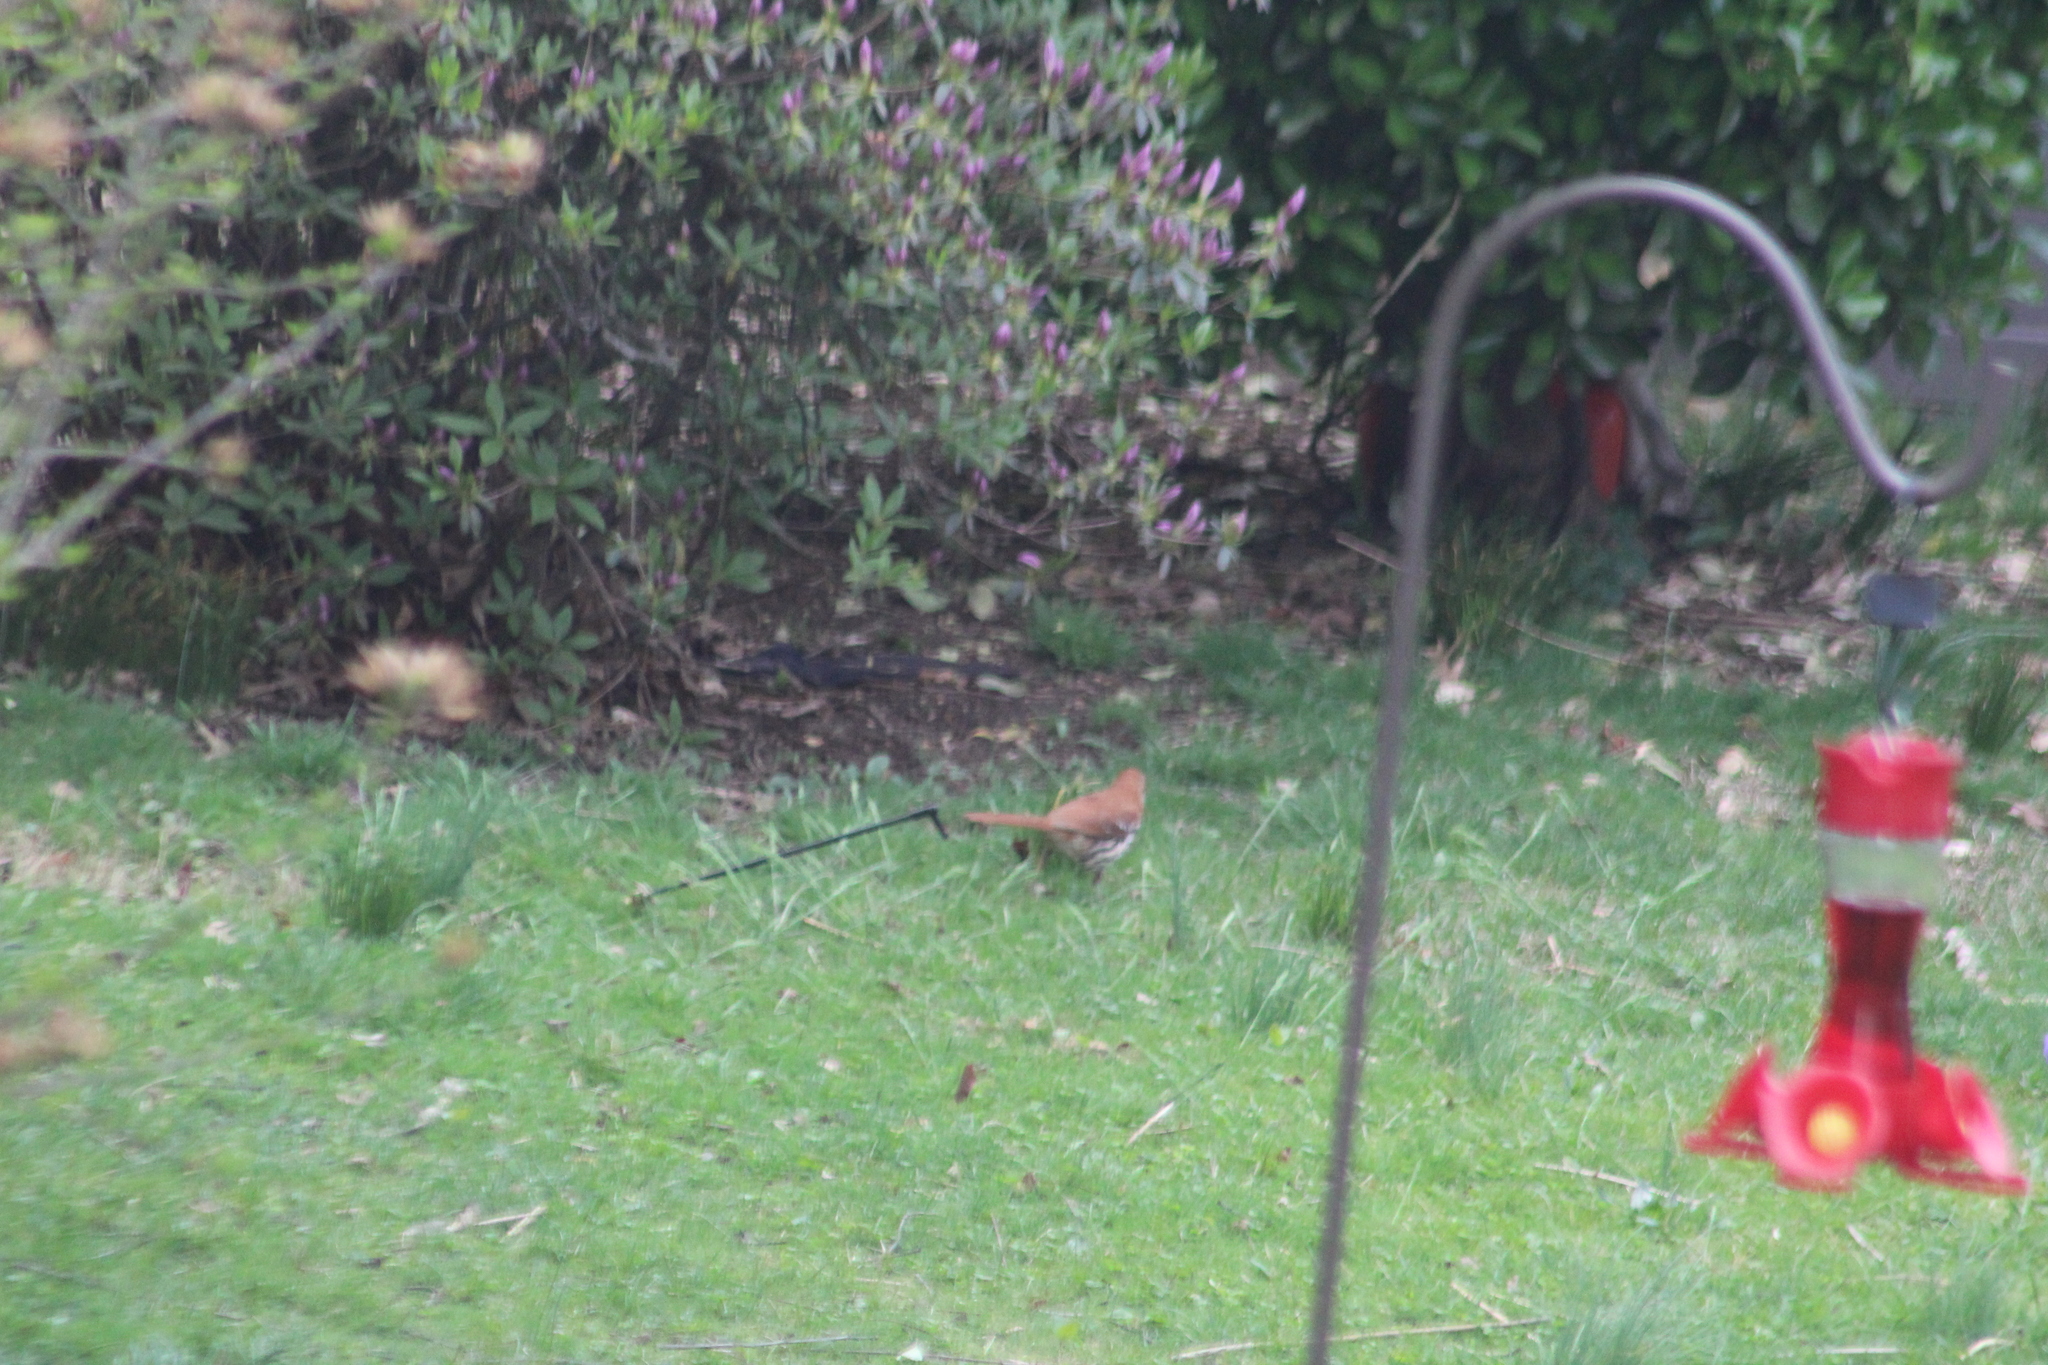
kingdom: Animalia
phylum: Chordata
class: Aves
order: Passeriformes
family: Mimidae
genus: Toxostoma
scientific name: Toxostoma rufum
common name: Brown thrasher
